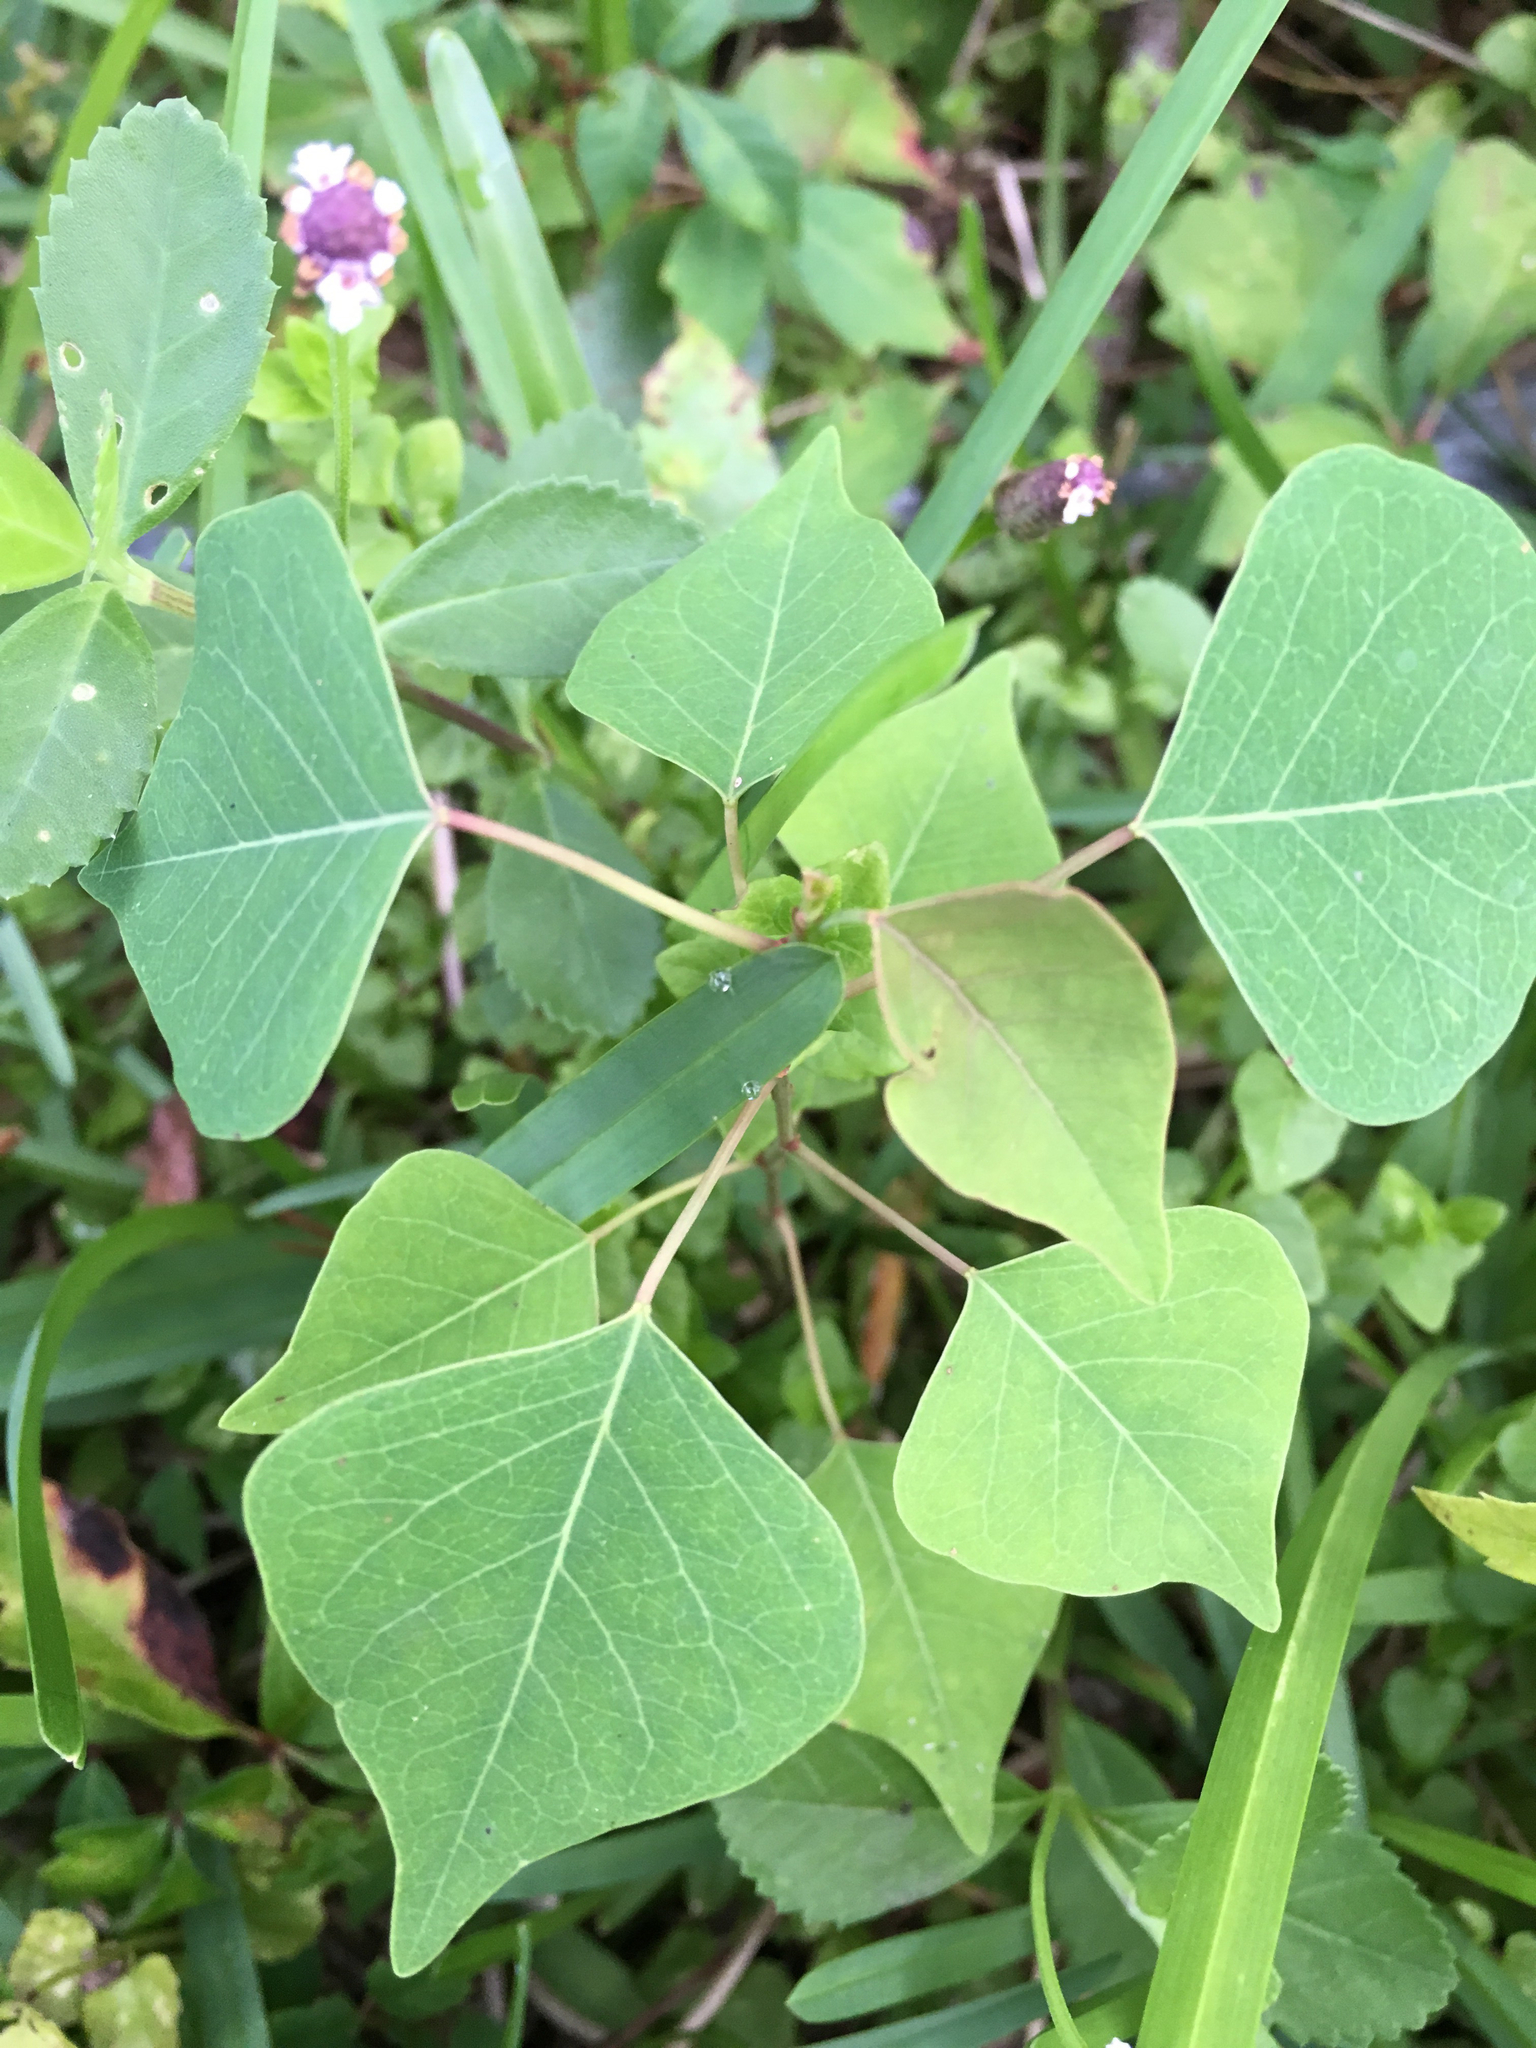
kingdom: Plantae
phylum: Tracheophyta
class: Magnoliopsida
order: Malpighiales
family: Euphorbiaceae
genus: Triadica
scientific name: Triadica sebifera
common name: Chinese tallow
